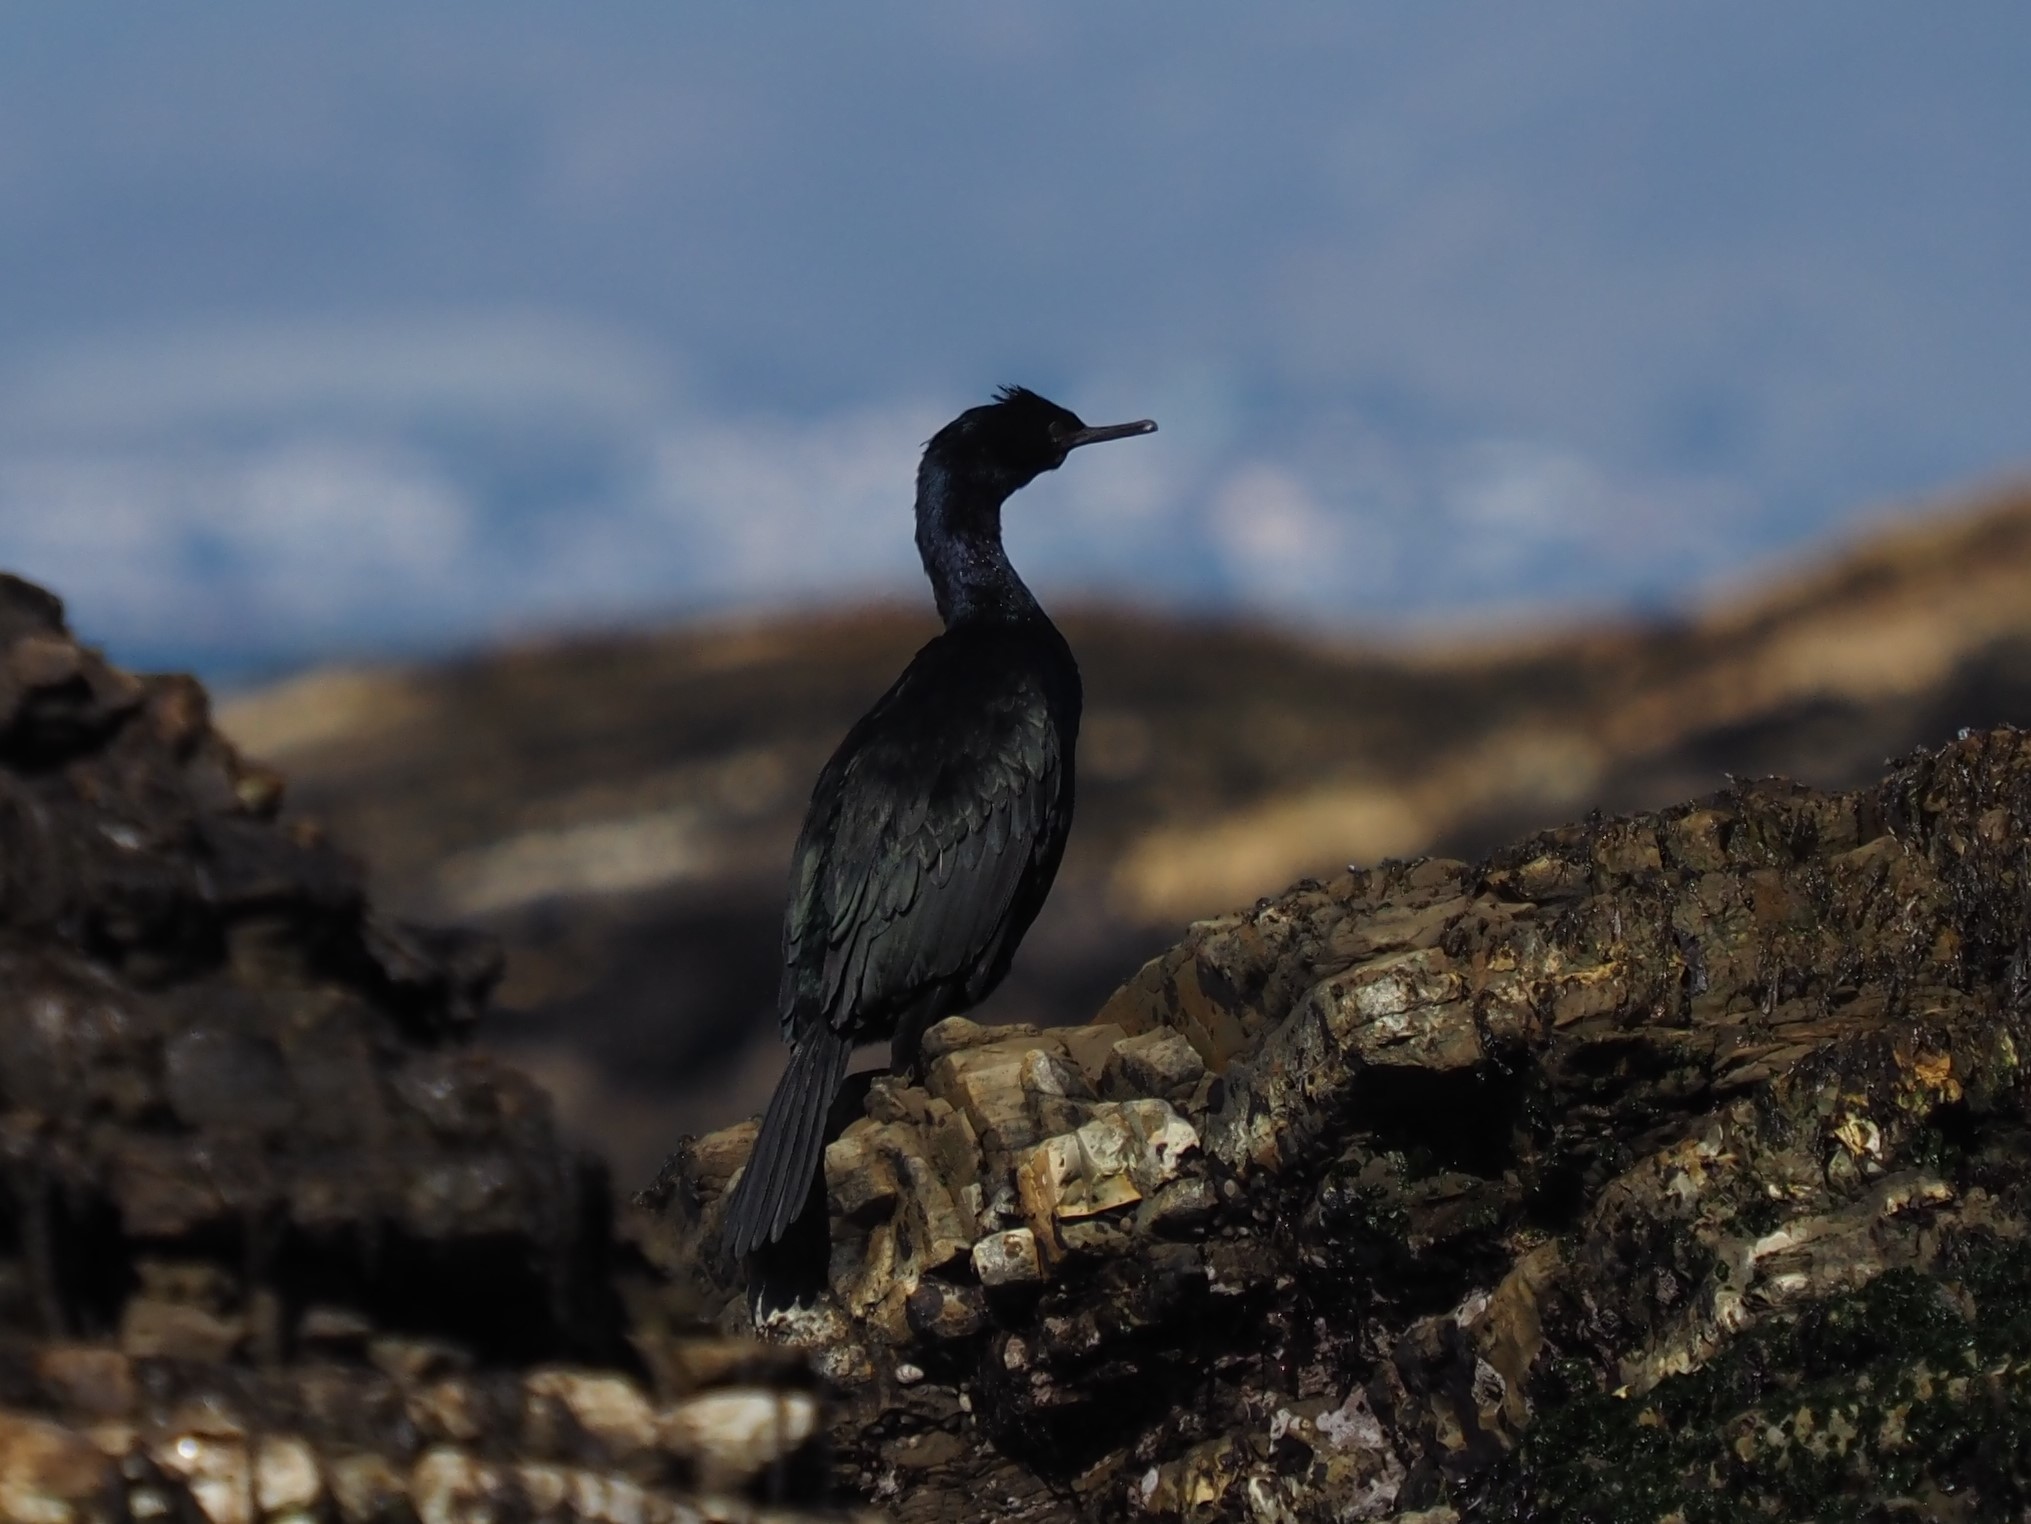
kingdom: Animalia
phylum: Chordata
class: Aves
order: Suliformes
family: Phalacrocoracidae
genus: Phalacrocorax
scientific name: Phalacrocorax pelagicus
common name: Pelagic cormorant
